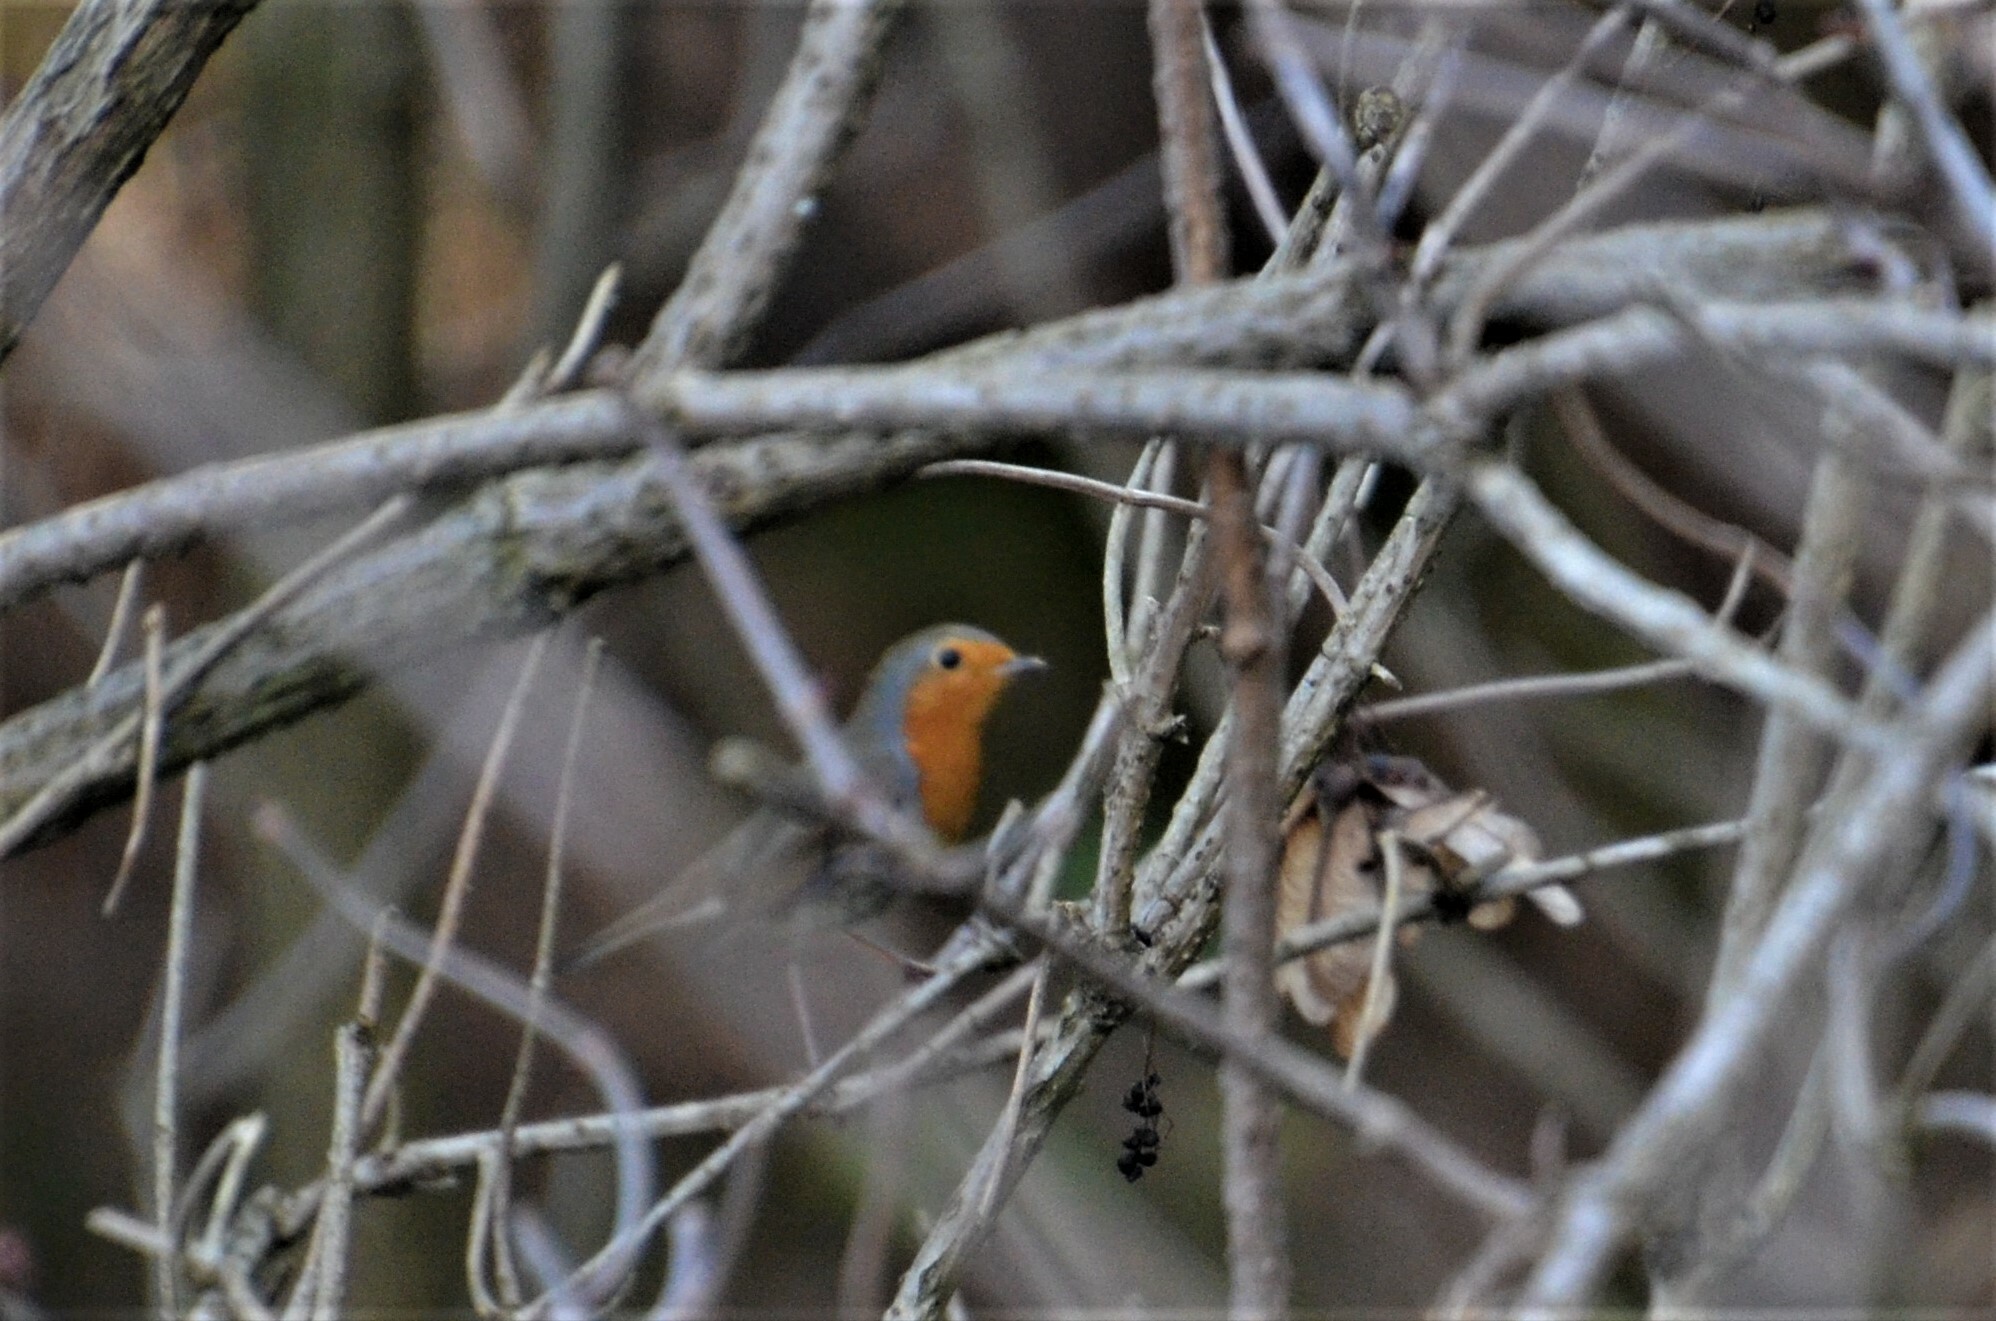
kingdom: Animalia
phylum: Chordata
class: Aves
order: Passeriformes
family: Muscicapidae
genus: Erithacus
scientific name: Erithacus rubecula
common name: European robin
